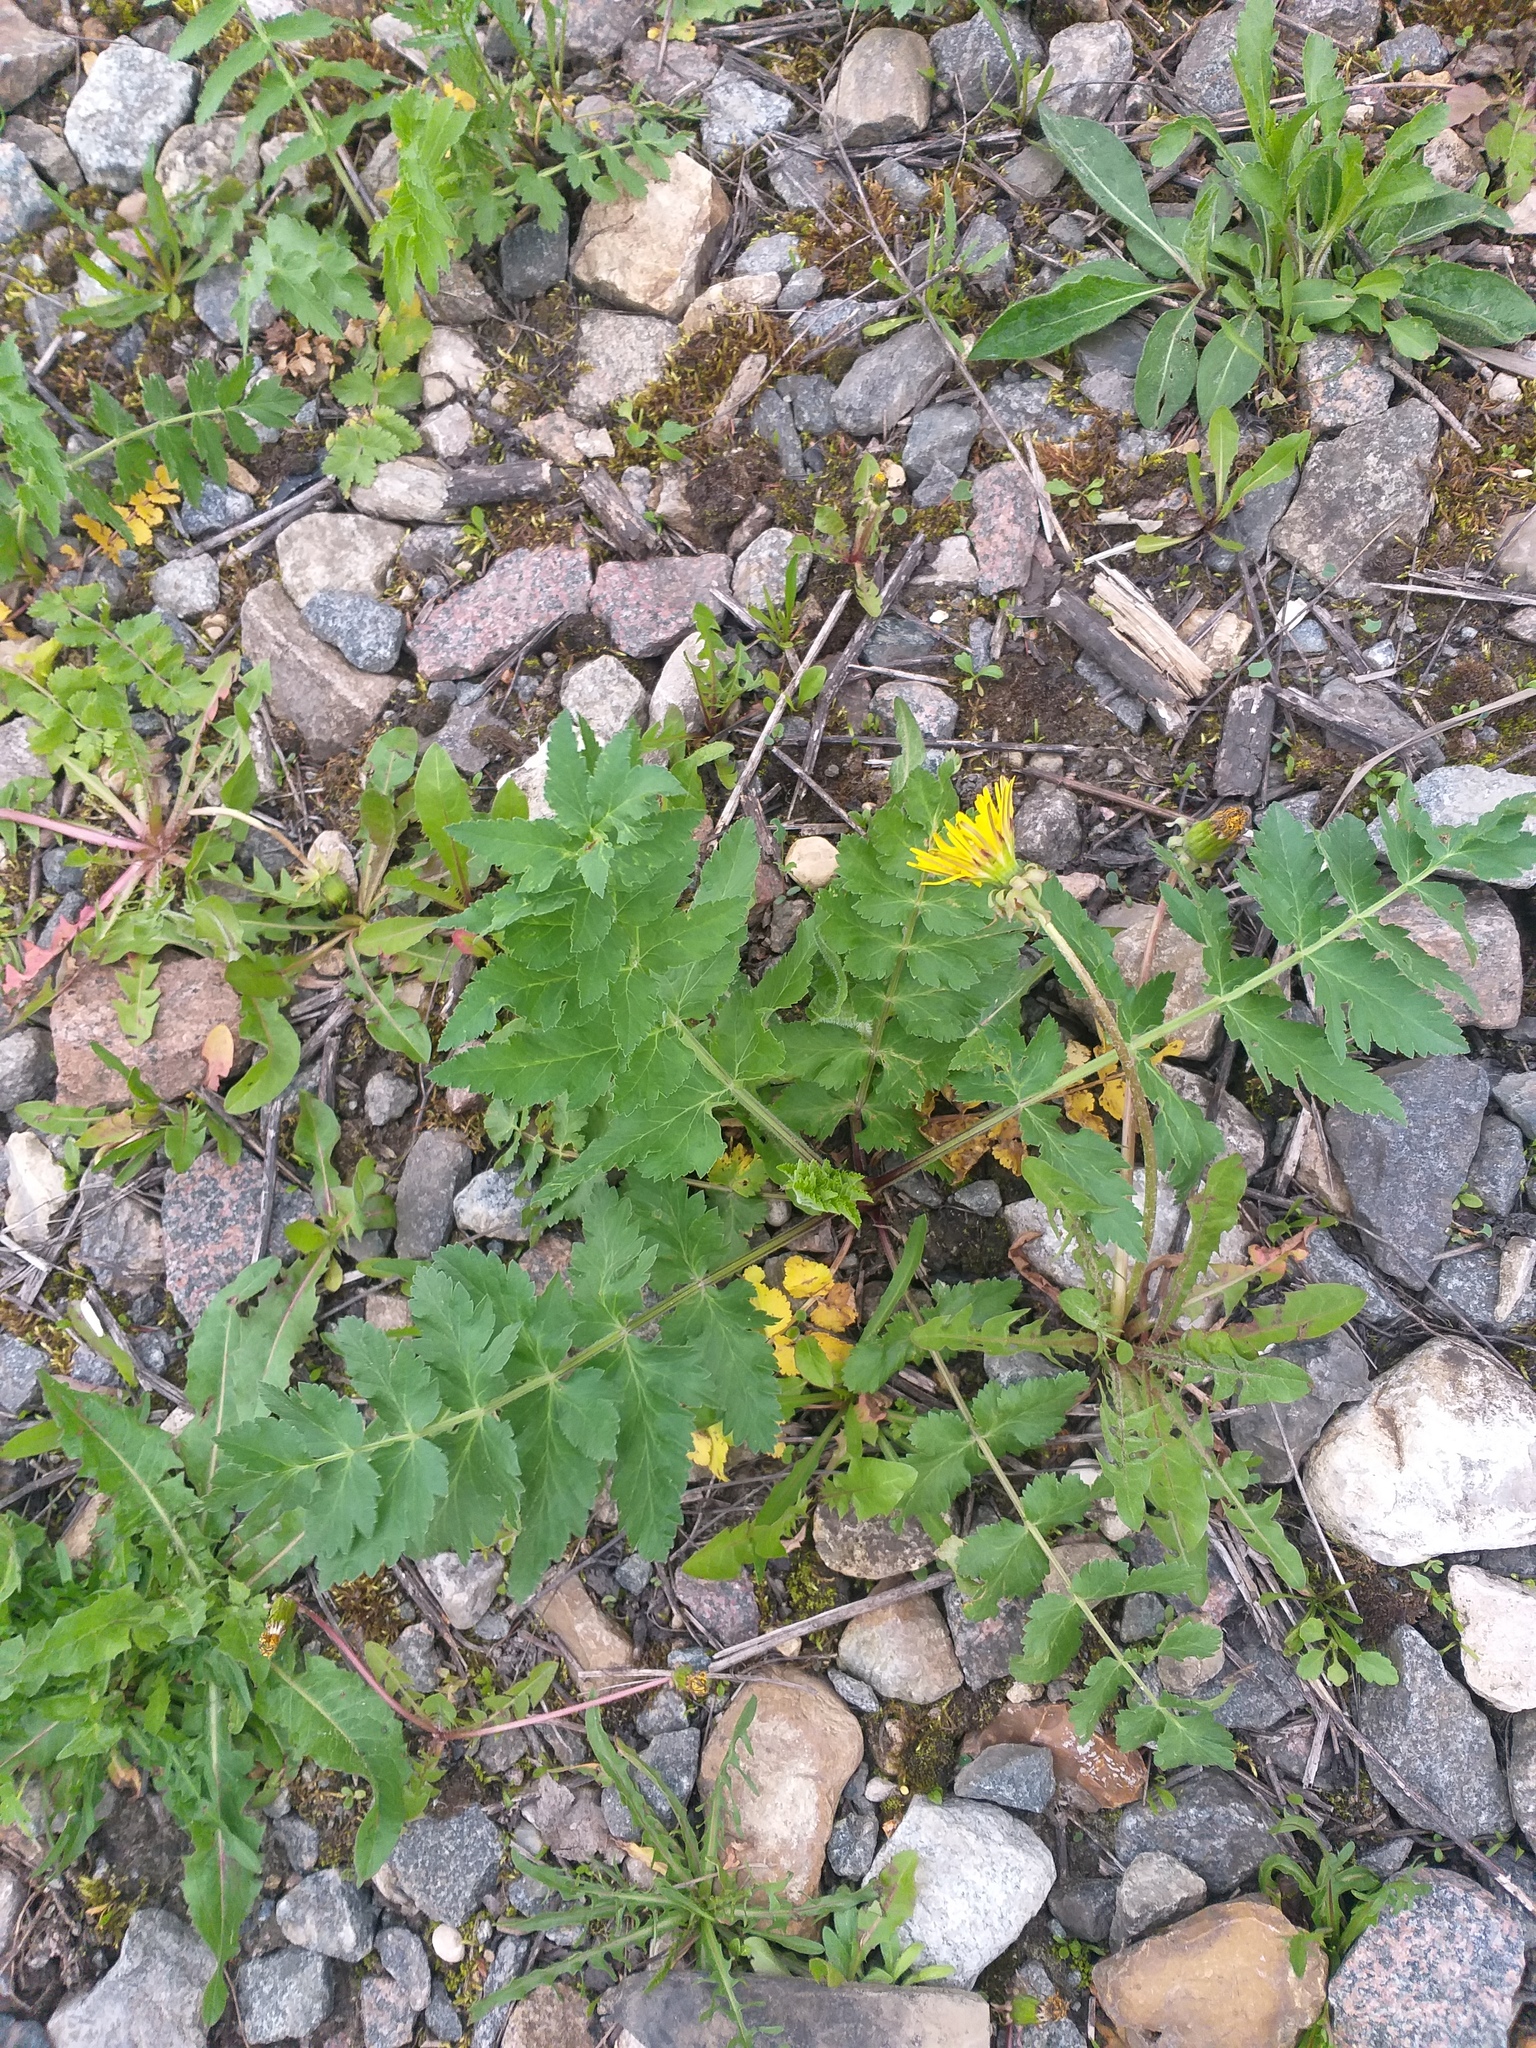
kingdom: Plantae
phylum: Tracheophyta
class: Magnoliopsida
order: Apiales
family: Apiaceae
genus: Pastinaca
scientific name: Pastinaca sativa
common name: Wild parsnip
